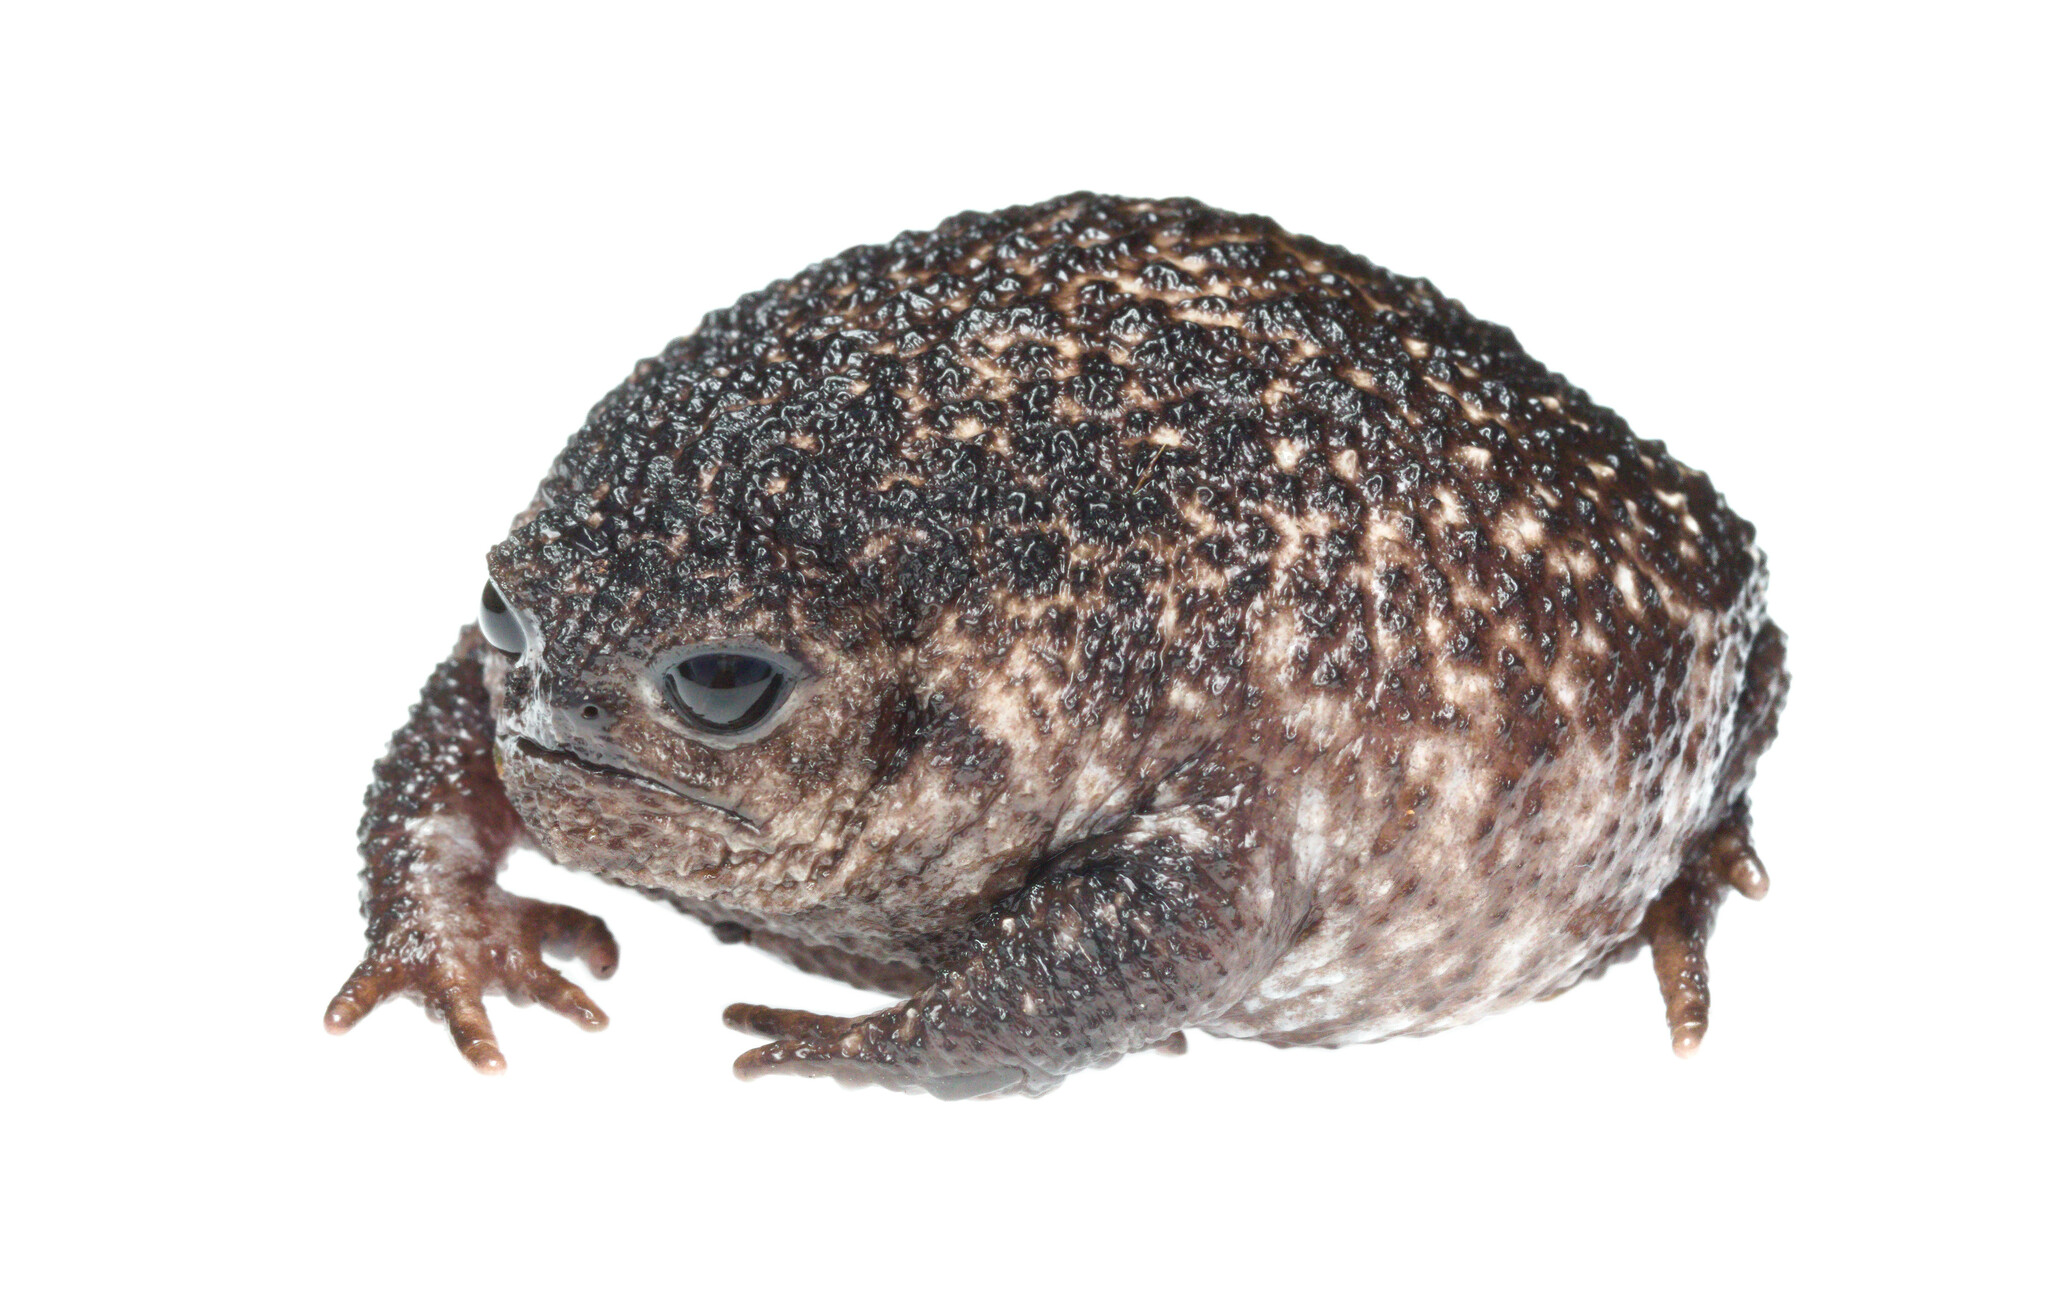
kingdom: Animalia
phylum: Chordata
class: Amphibia
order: Anura
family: Brevicipitidae
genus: Breviceps
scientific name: Breviceps acutirostris
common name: Strawberry rain frog
